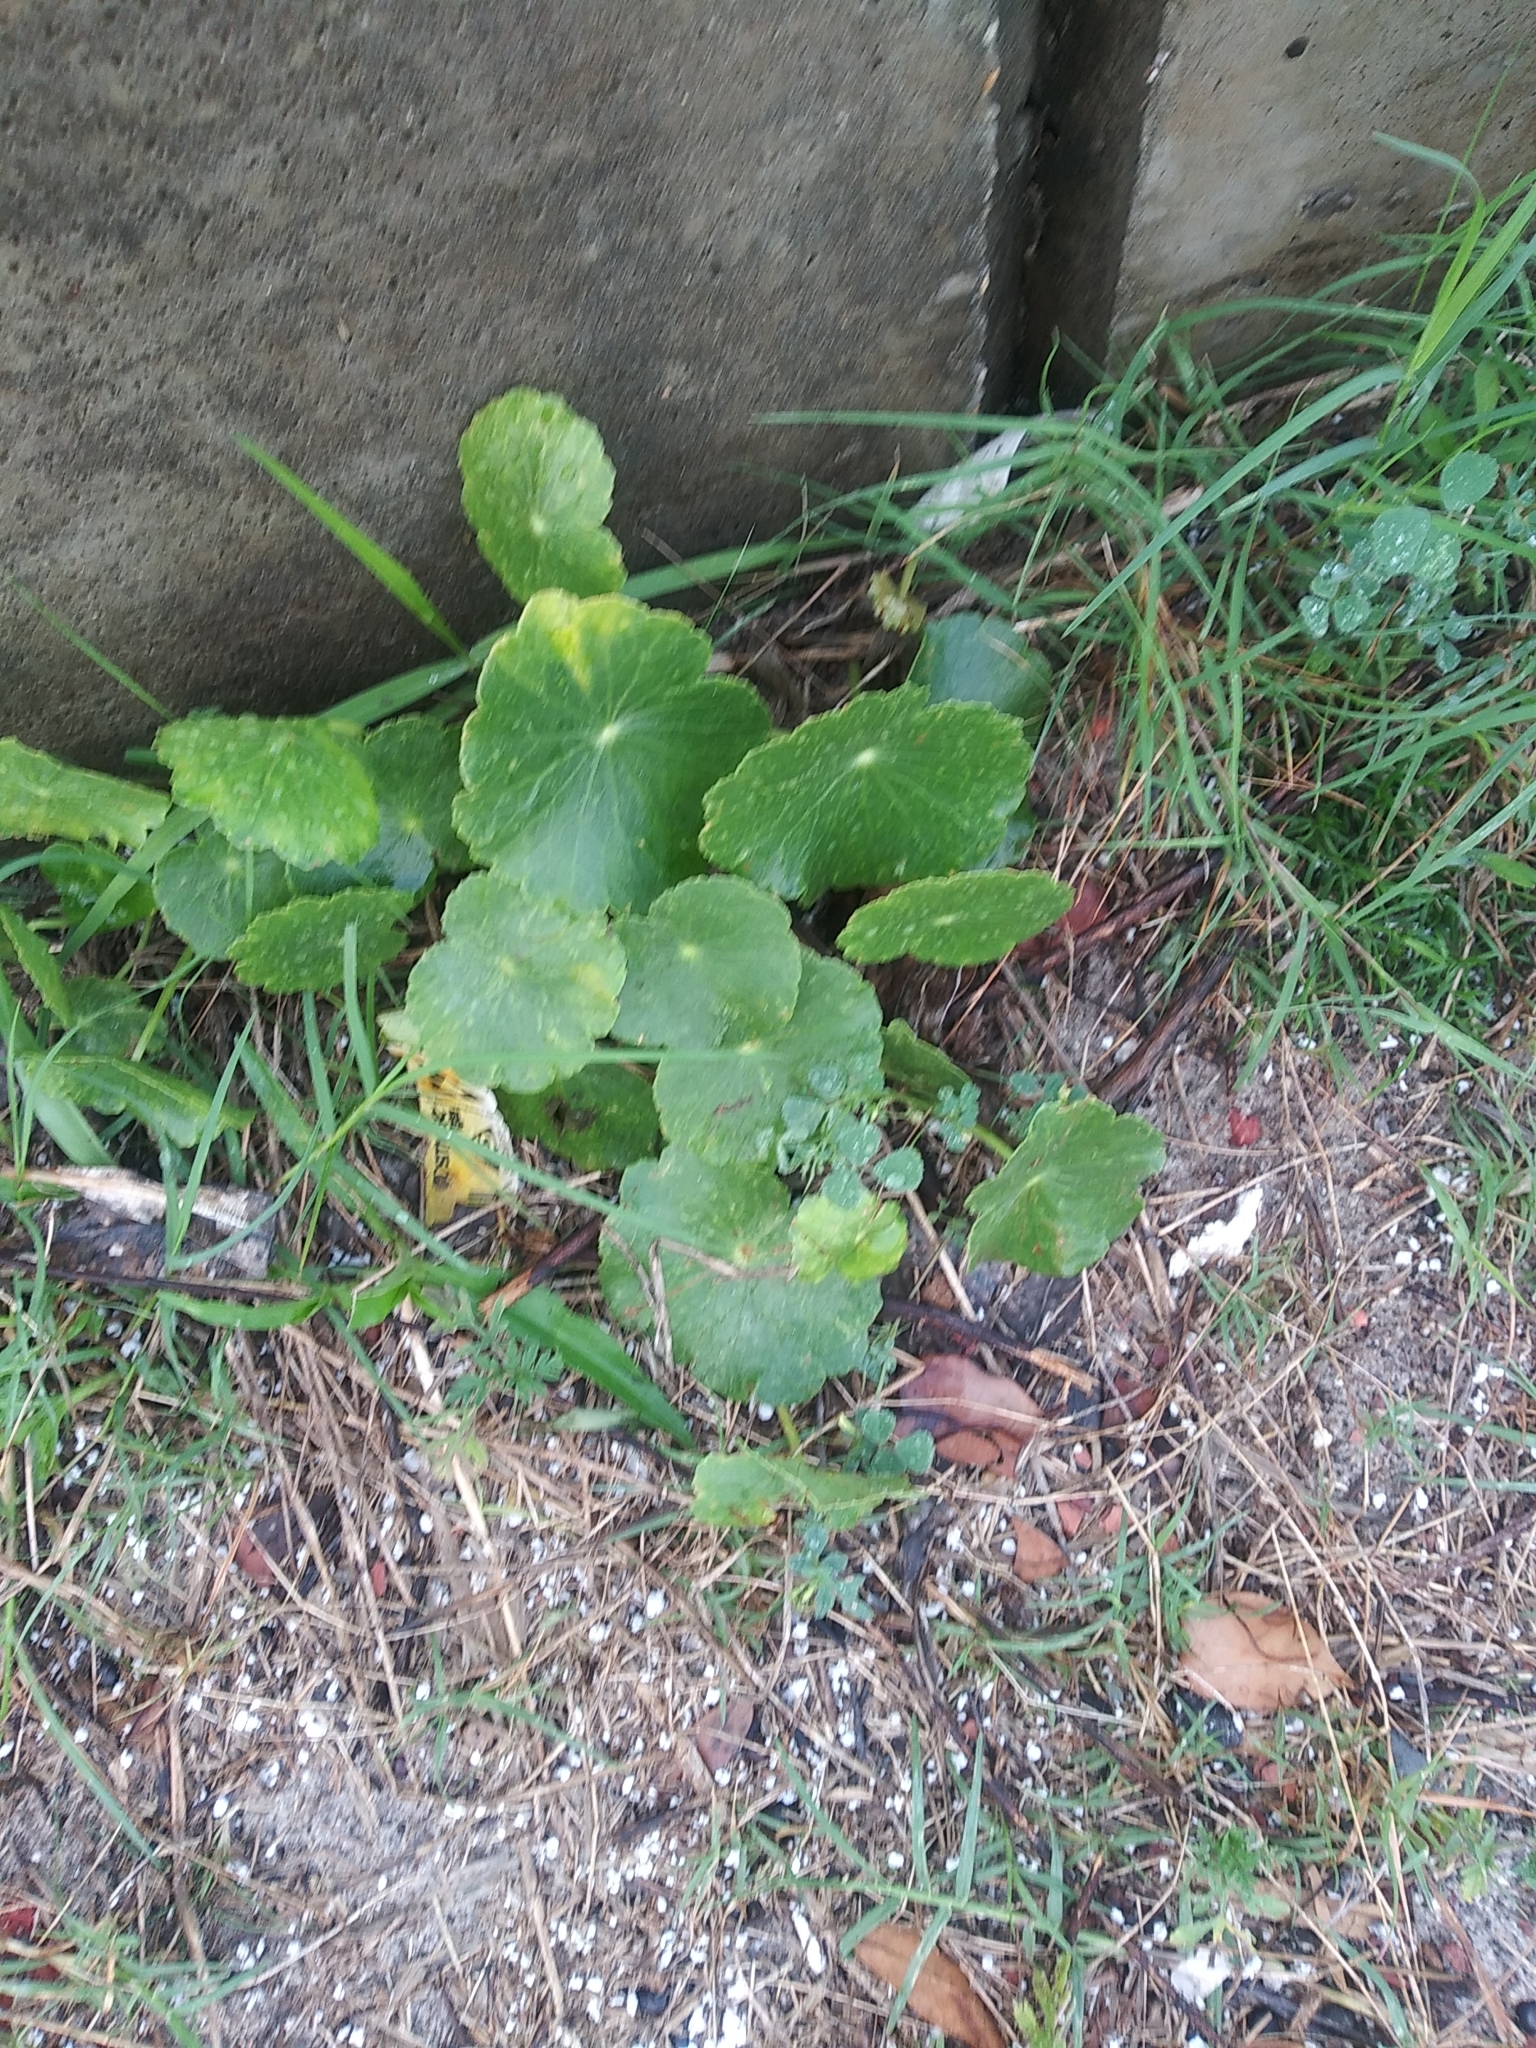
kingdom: Plantae
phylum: Tracheophyta
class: Magnoliopsida
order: Apiales
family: Araliaceae
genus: Hydrocotyle
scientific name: Hydrocotyle bonariensis
